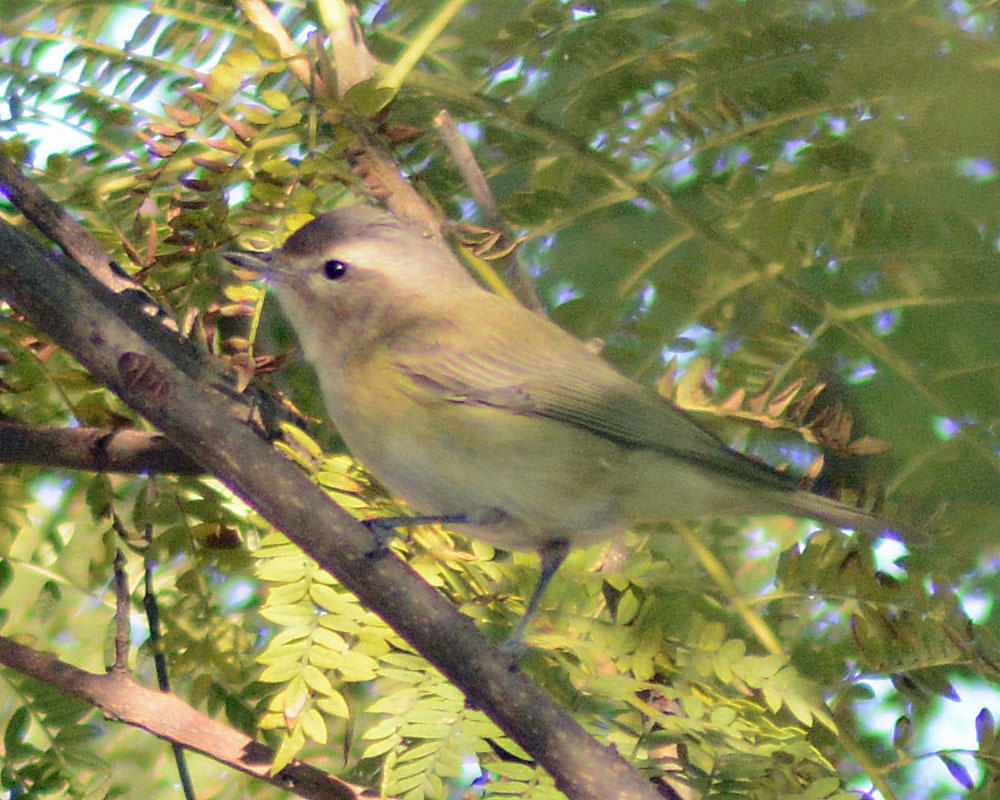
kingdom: Animalia
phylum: Chordata
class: Aves
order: Passeriformes
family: Vireonidae
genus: Vireo
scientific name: Vireo gilvus
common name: Warbling vireo
